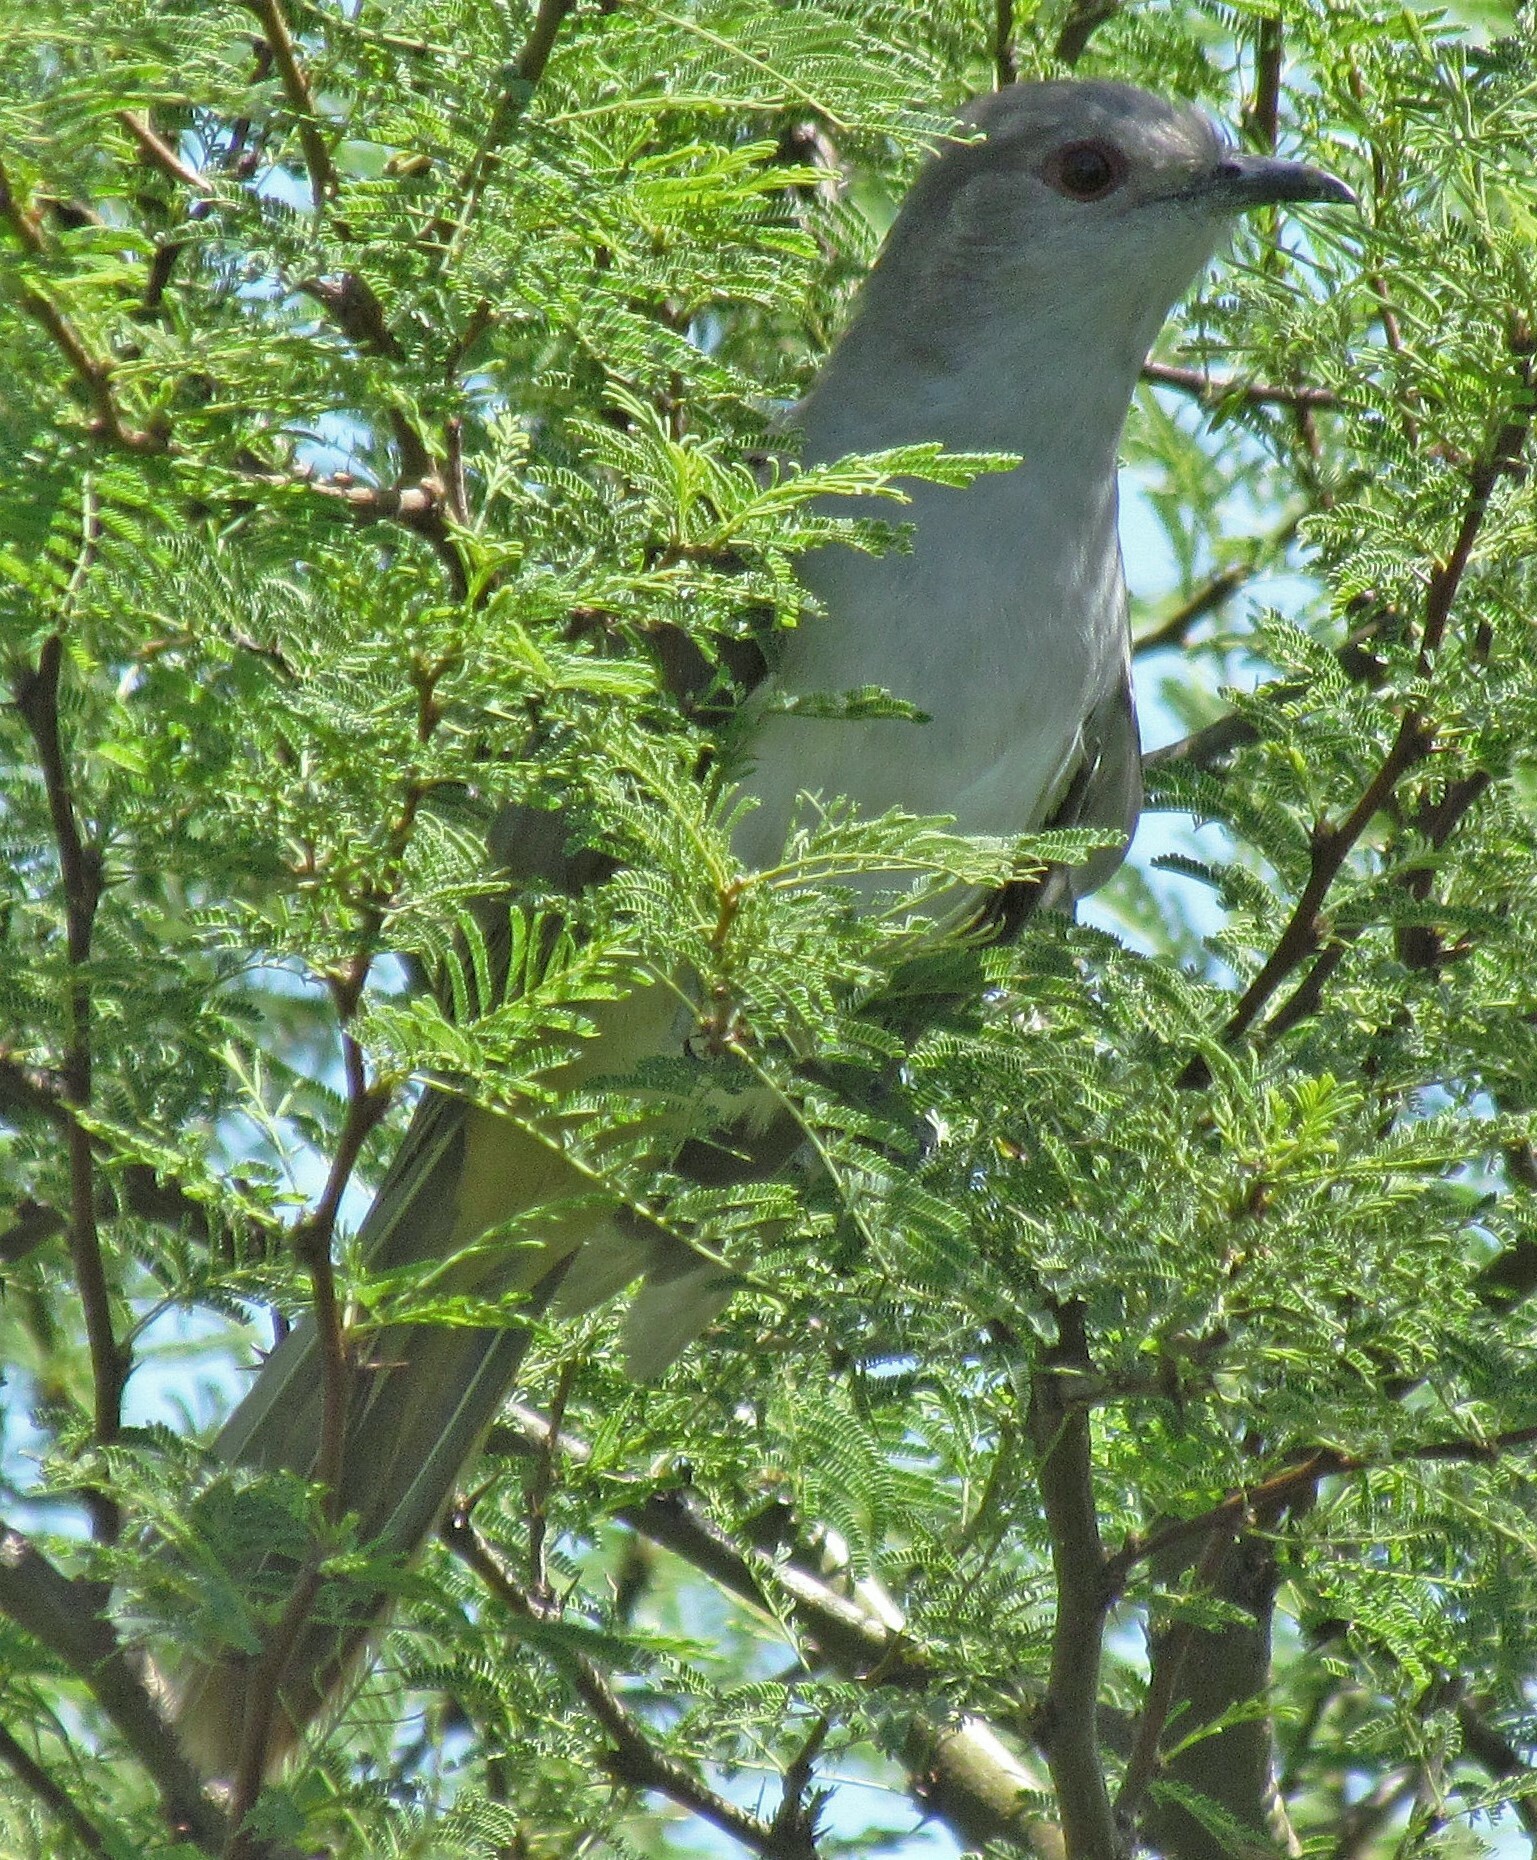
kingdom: Animalia
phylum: Chordata
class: Aves
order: Cuculiformes
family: Cuculidae
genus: Coccyzus
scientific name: Coccyzus cinereus
